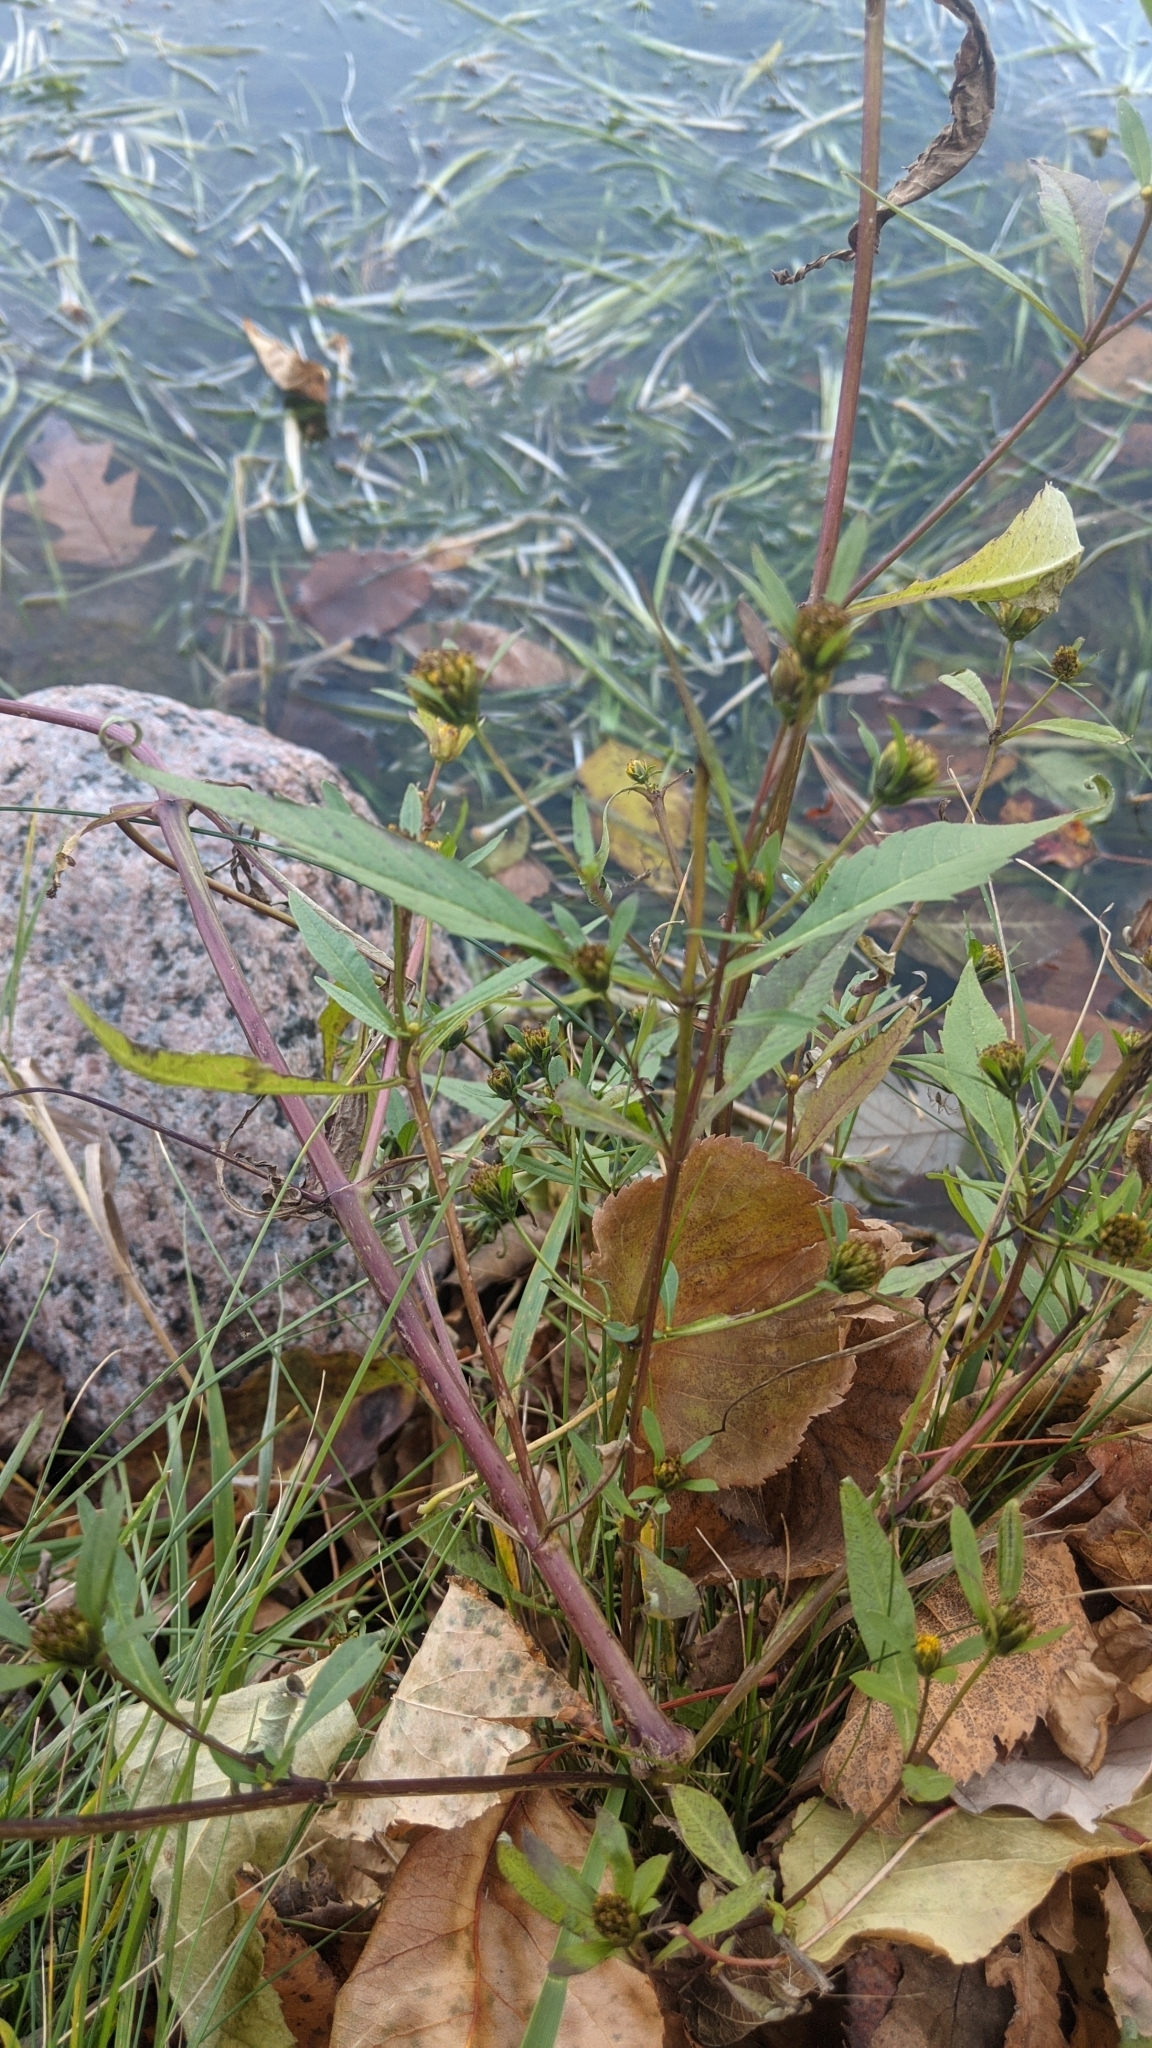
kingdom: Plantae
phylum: Tracheophyta
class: Magnoliopsida
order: Asterales
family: Asteraceae
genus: Bidens
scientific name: Bidens connata
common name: London bur-marigold
